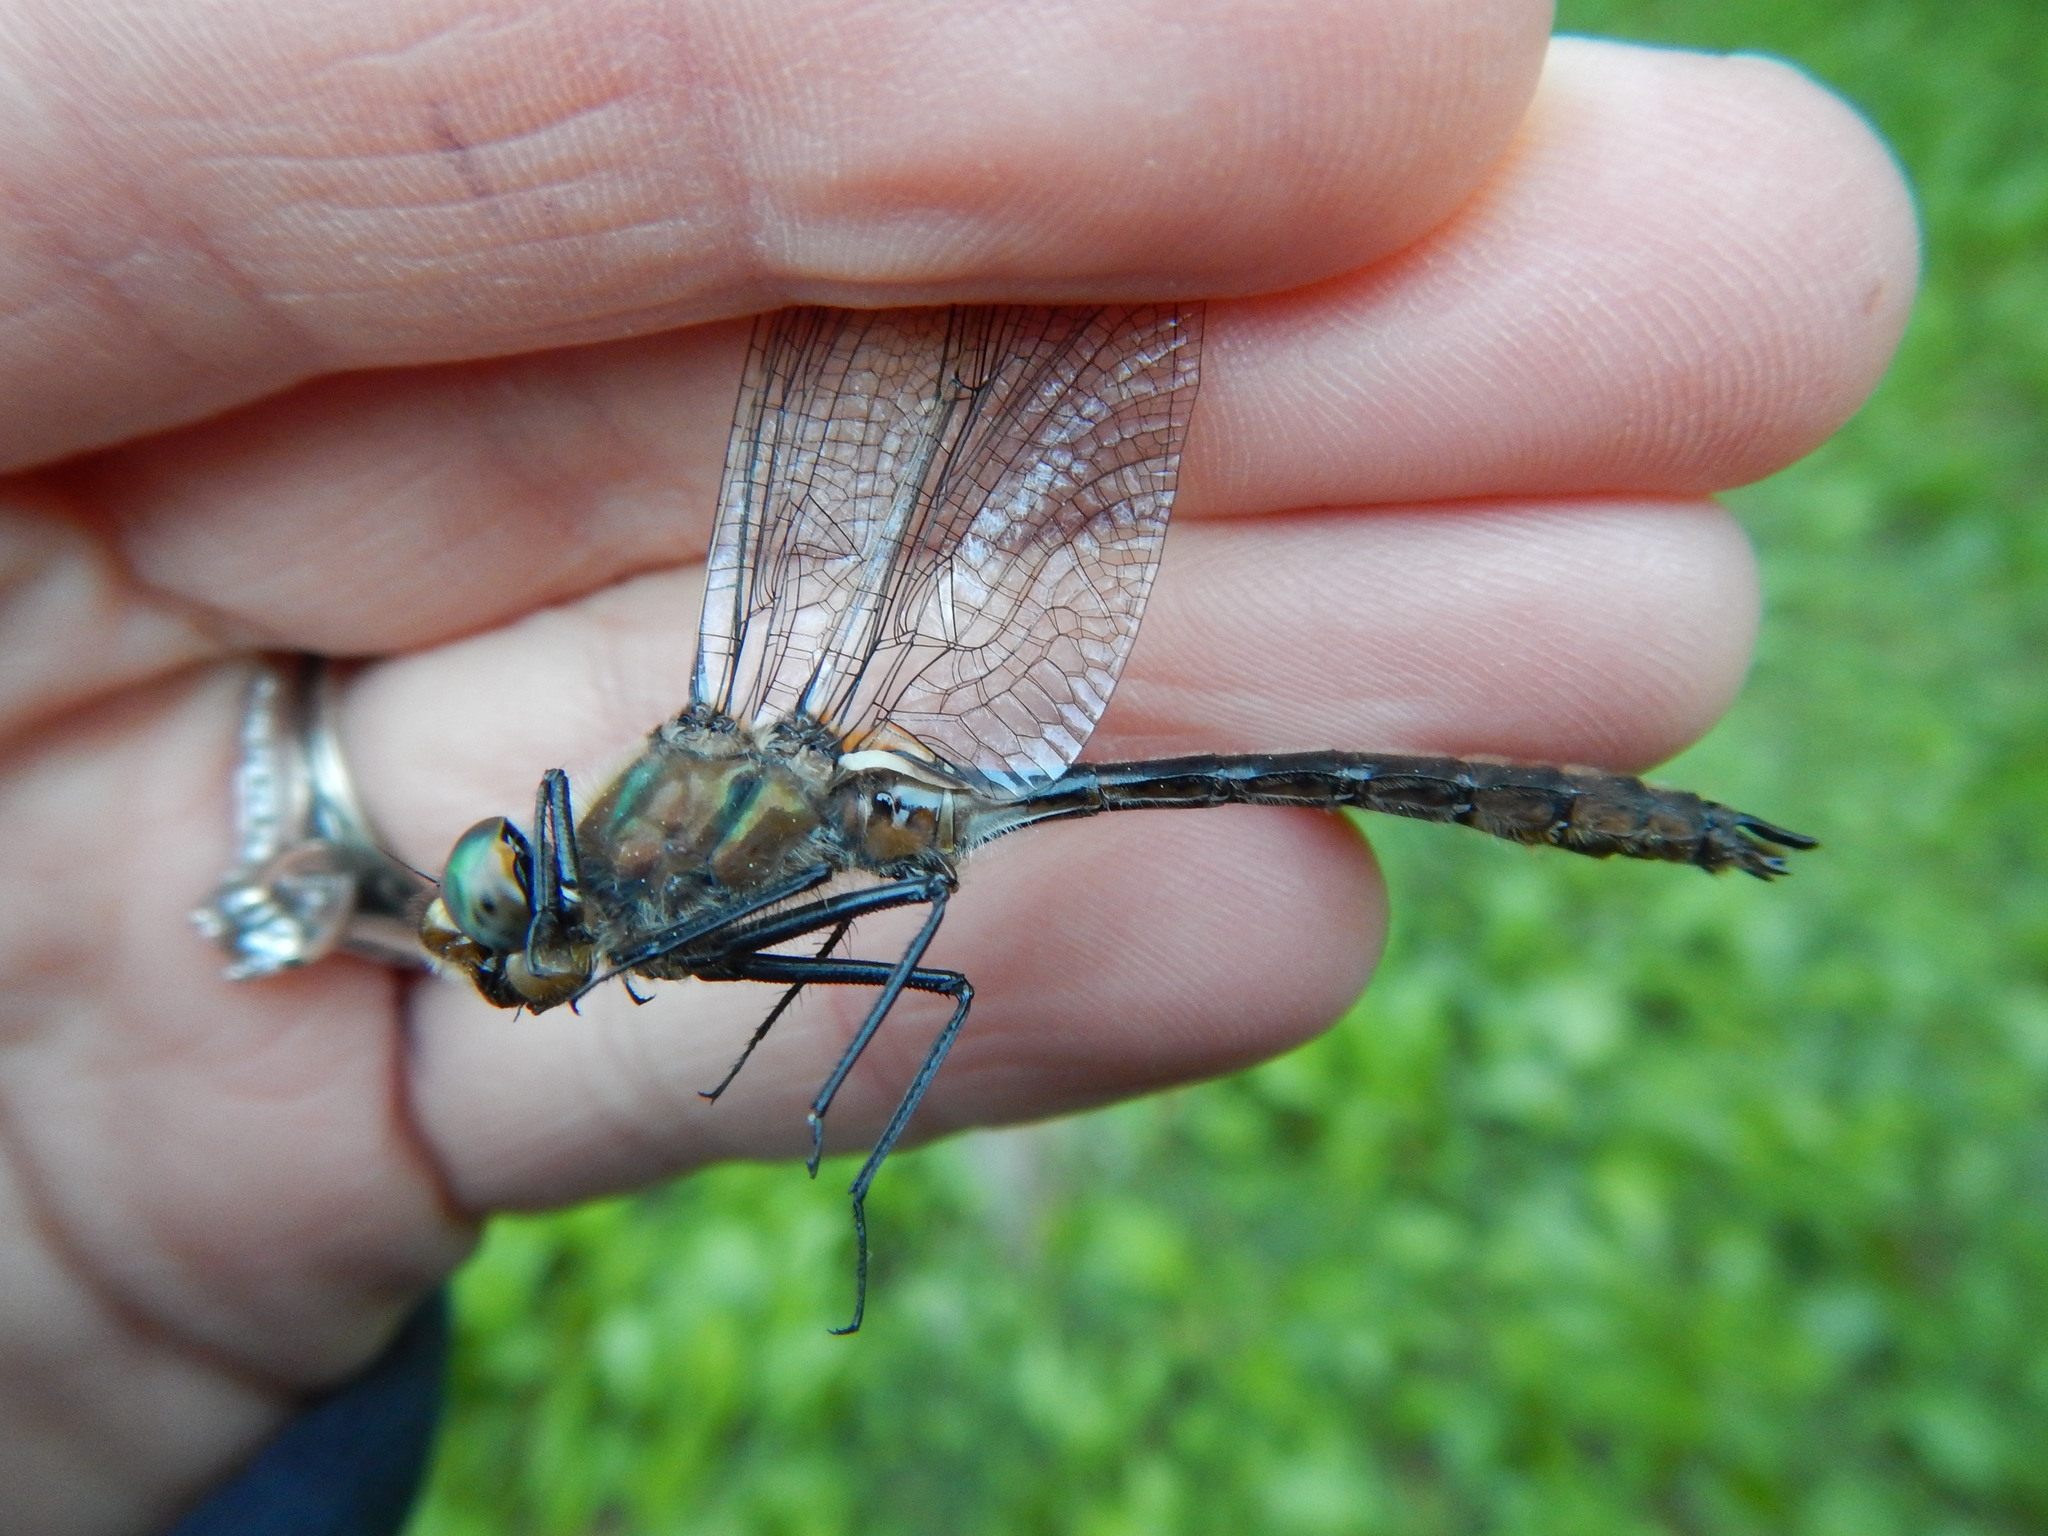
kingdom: Animalia
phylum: Arthropoda
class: Insecta
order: Odonata
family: Corduliidae
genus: Cordulia
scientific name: Cordulia shurtleffii
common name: American emerald
